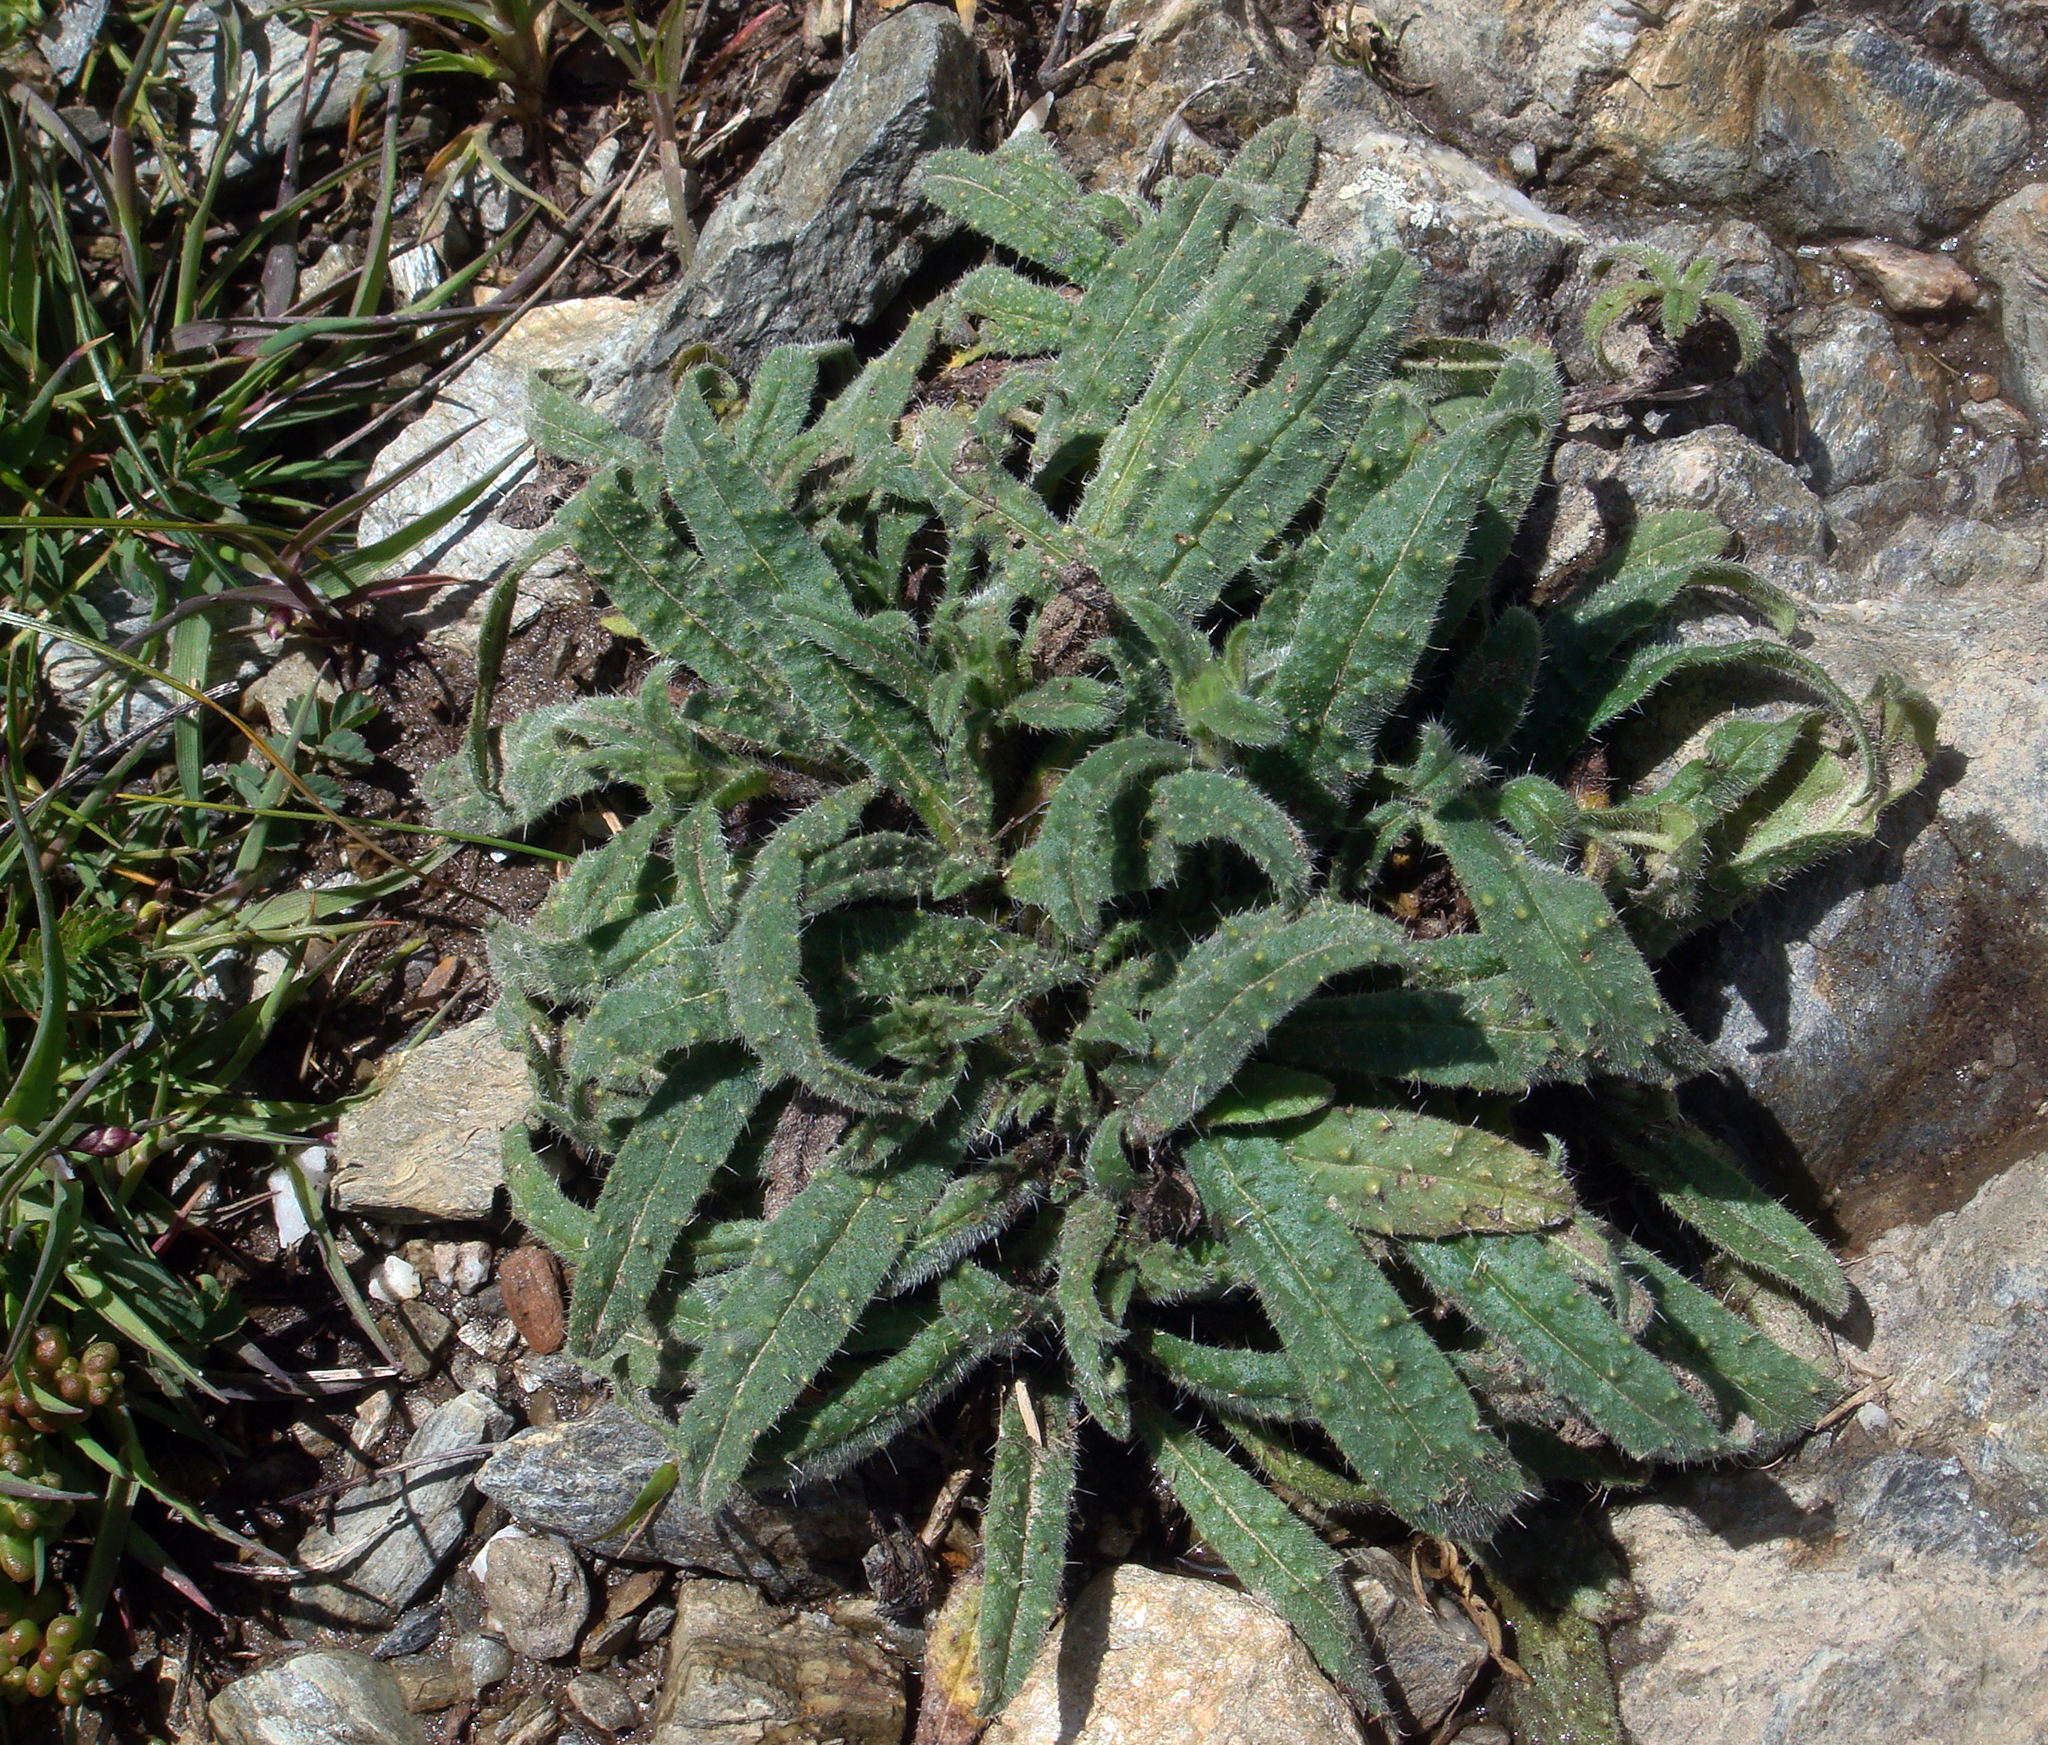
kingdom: Plantae
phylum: Tracheophyta
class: Magnoliopsida
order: Boraginales
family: Boraginaceae
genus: Echium
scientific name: Echium anchusoides
